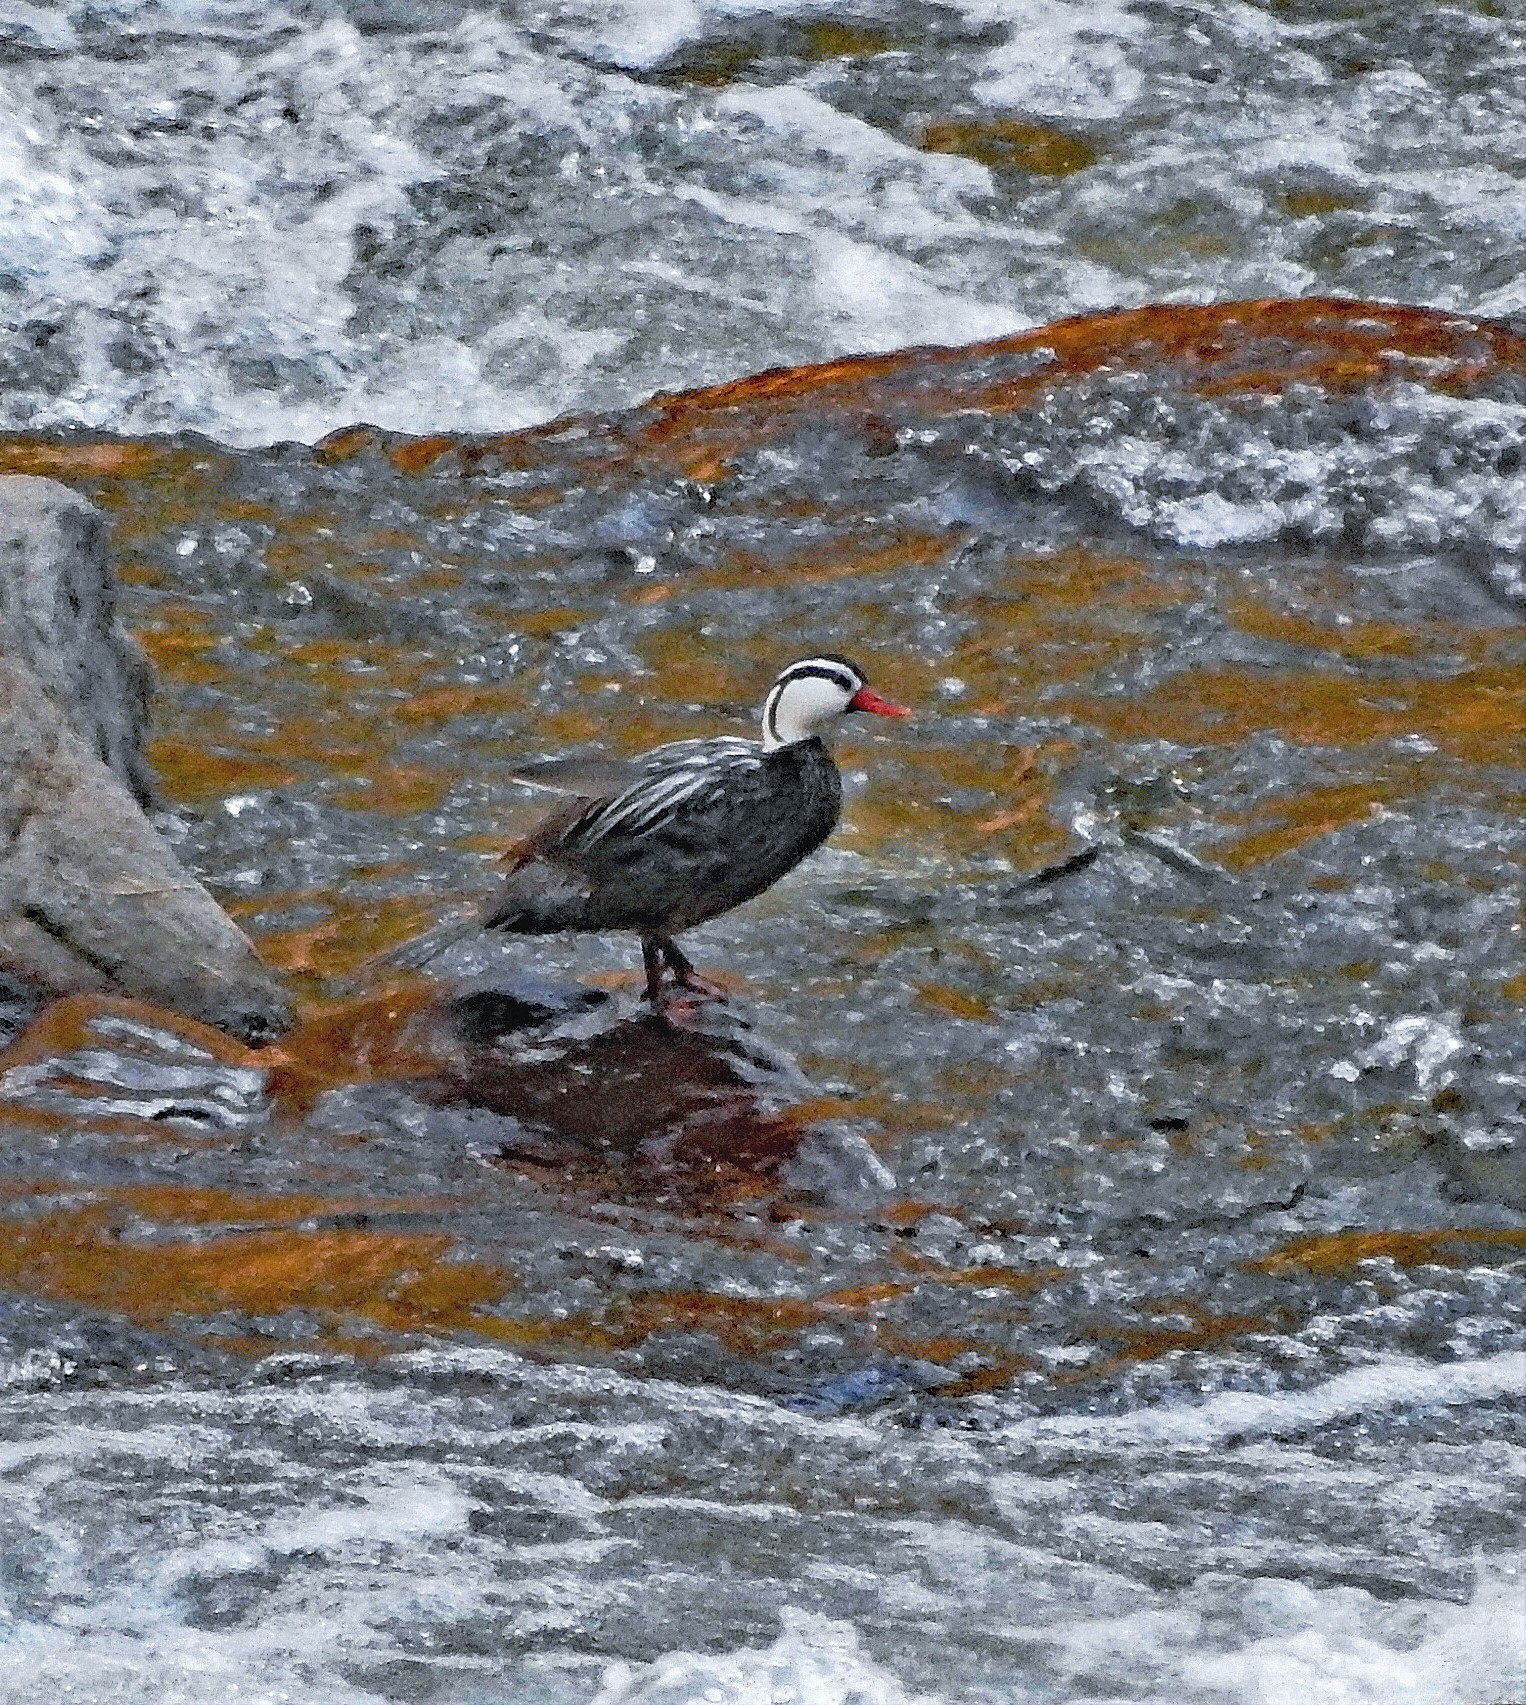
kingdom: Animalia
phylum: Chordata
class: Aves
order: Anseriformes
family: Anatidae
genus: Merganetta
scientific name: Merganetta armata
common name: Torrent duck
